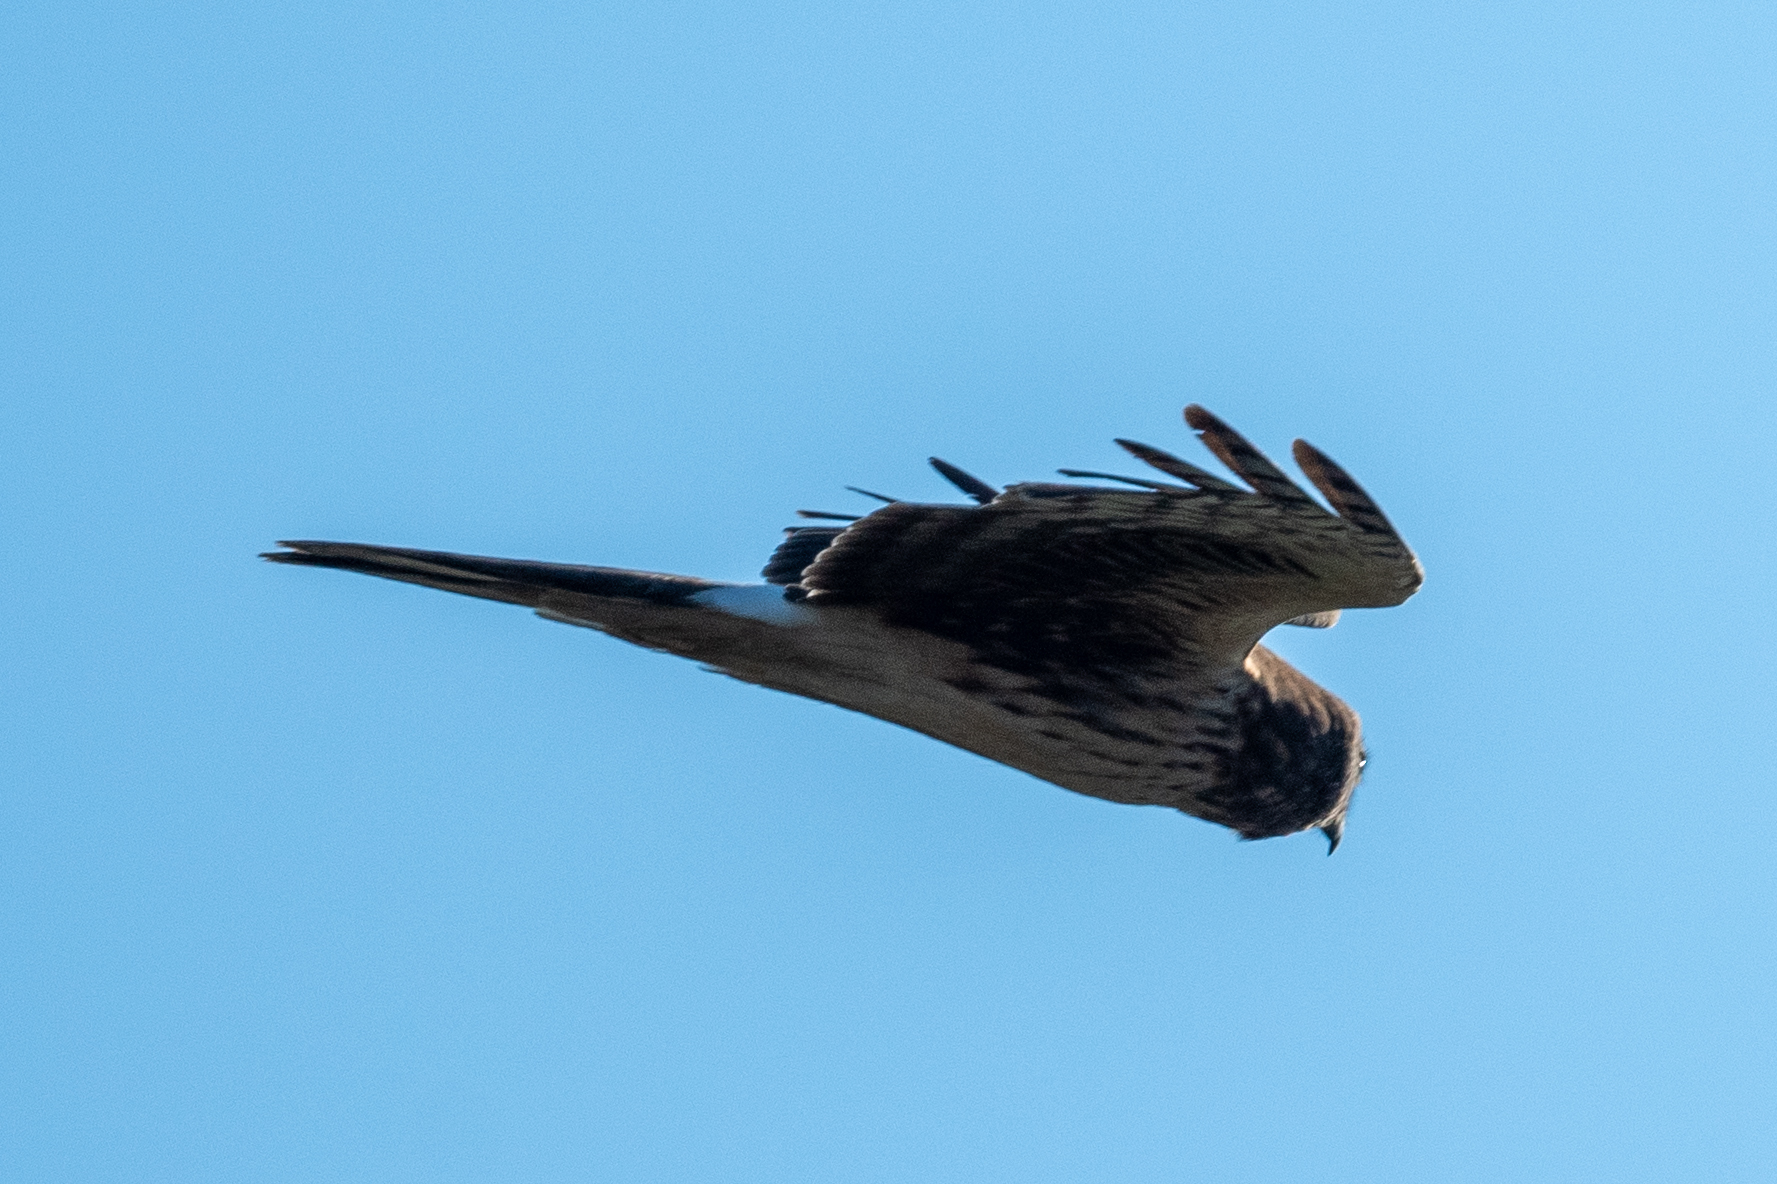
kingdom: Animalia
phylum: Chordata
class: Aves
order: Accipitriformes
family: Accipitridae
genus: Circus
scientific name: Circus cyaneus
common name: Hen harrier
